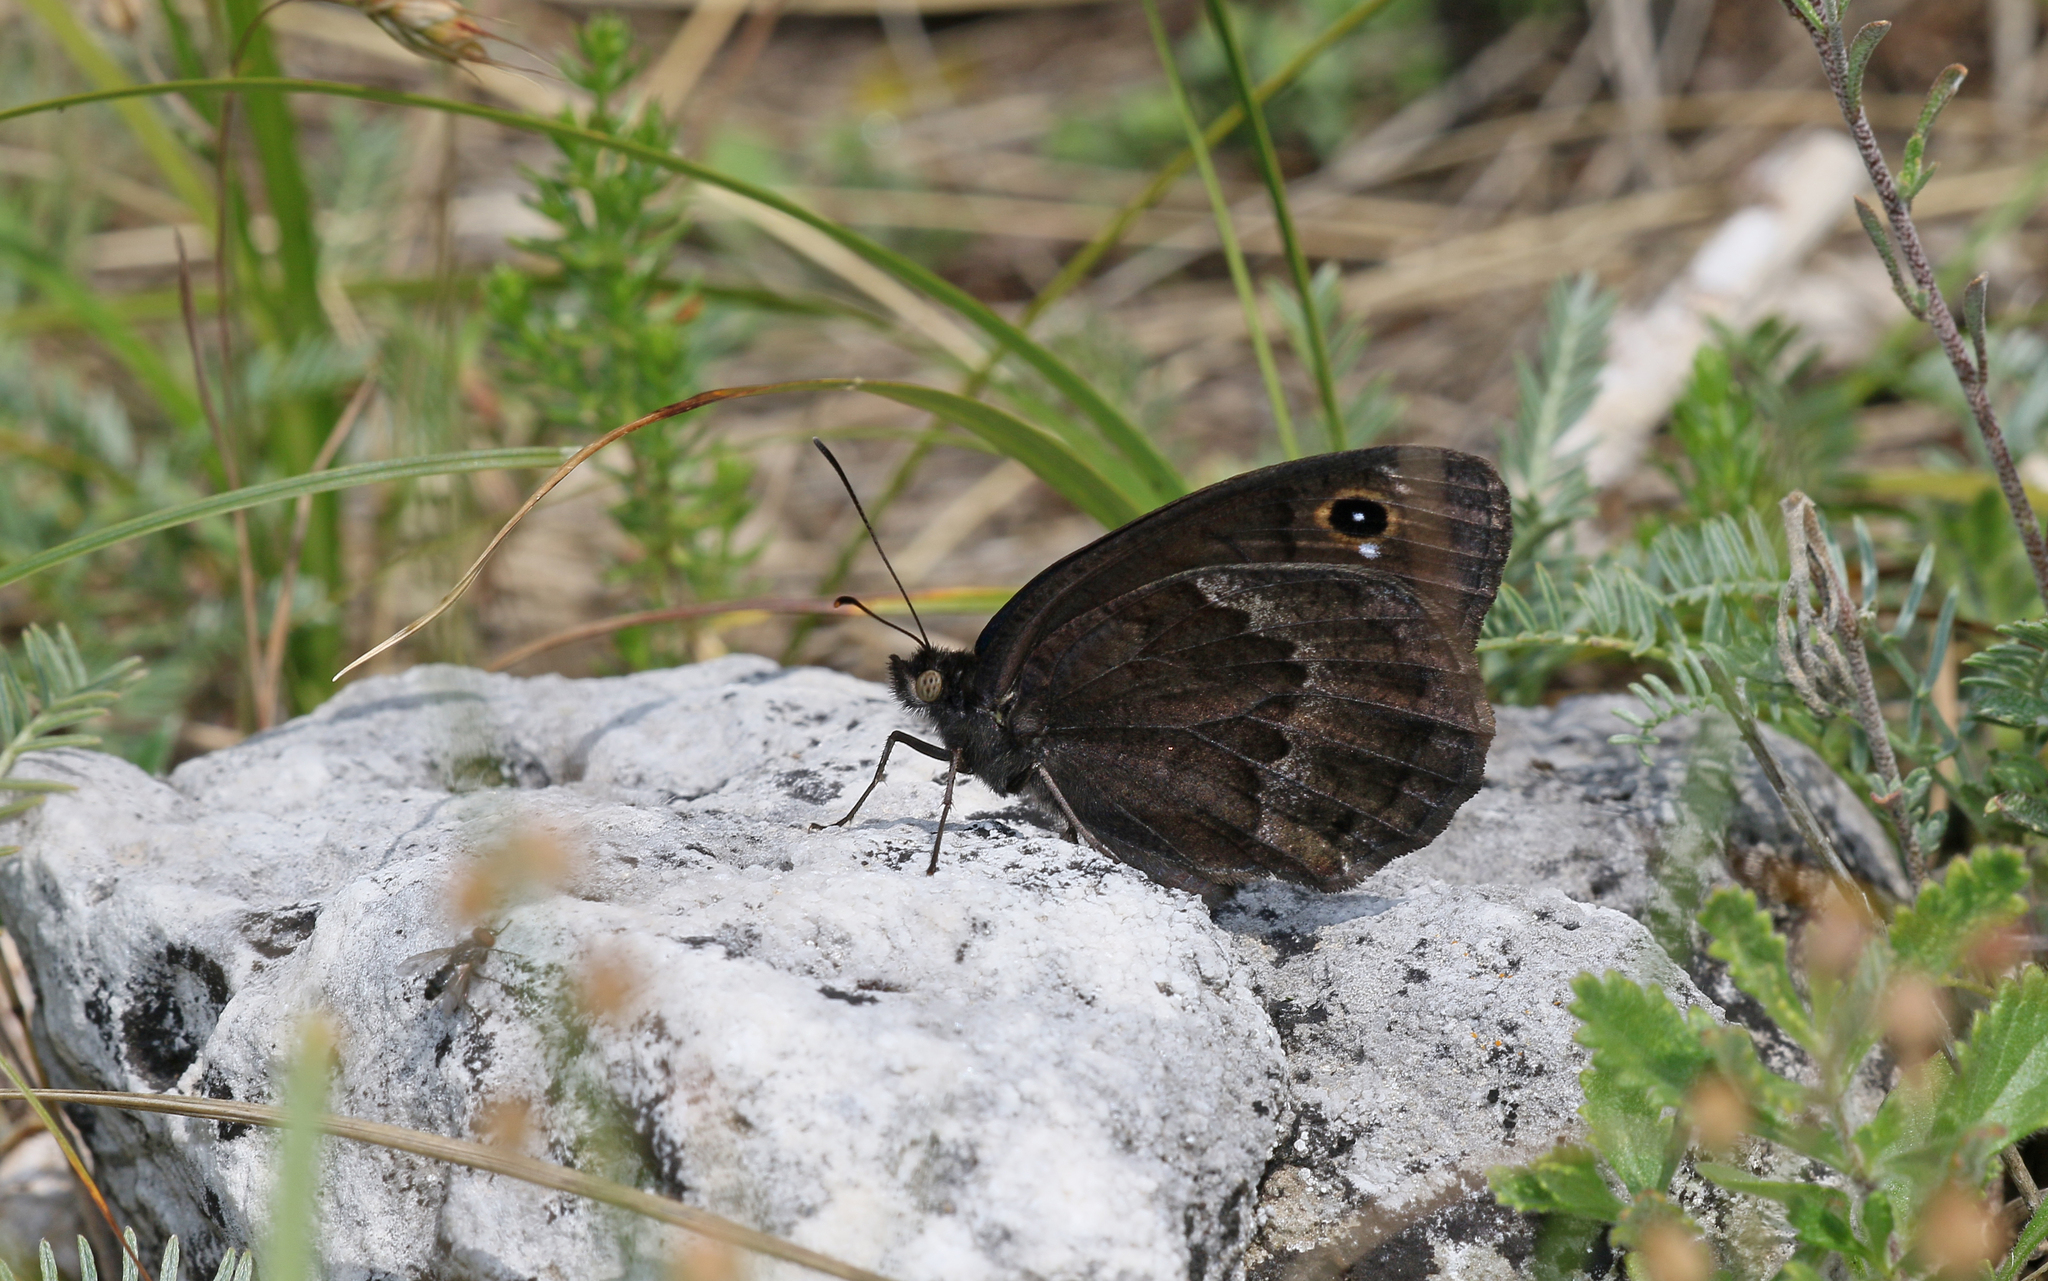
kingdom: Animalia
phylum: Arthropoda
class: Insecta
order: Lepidoptera
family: Nymphalidae
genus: Satyrus
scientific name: Satyrus ferula
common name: Great sooty satyr
